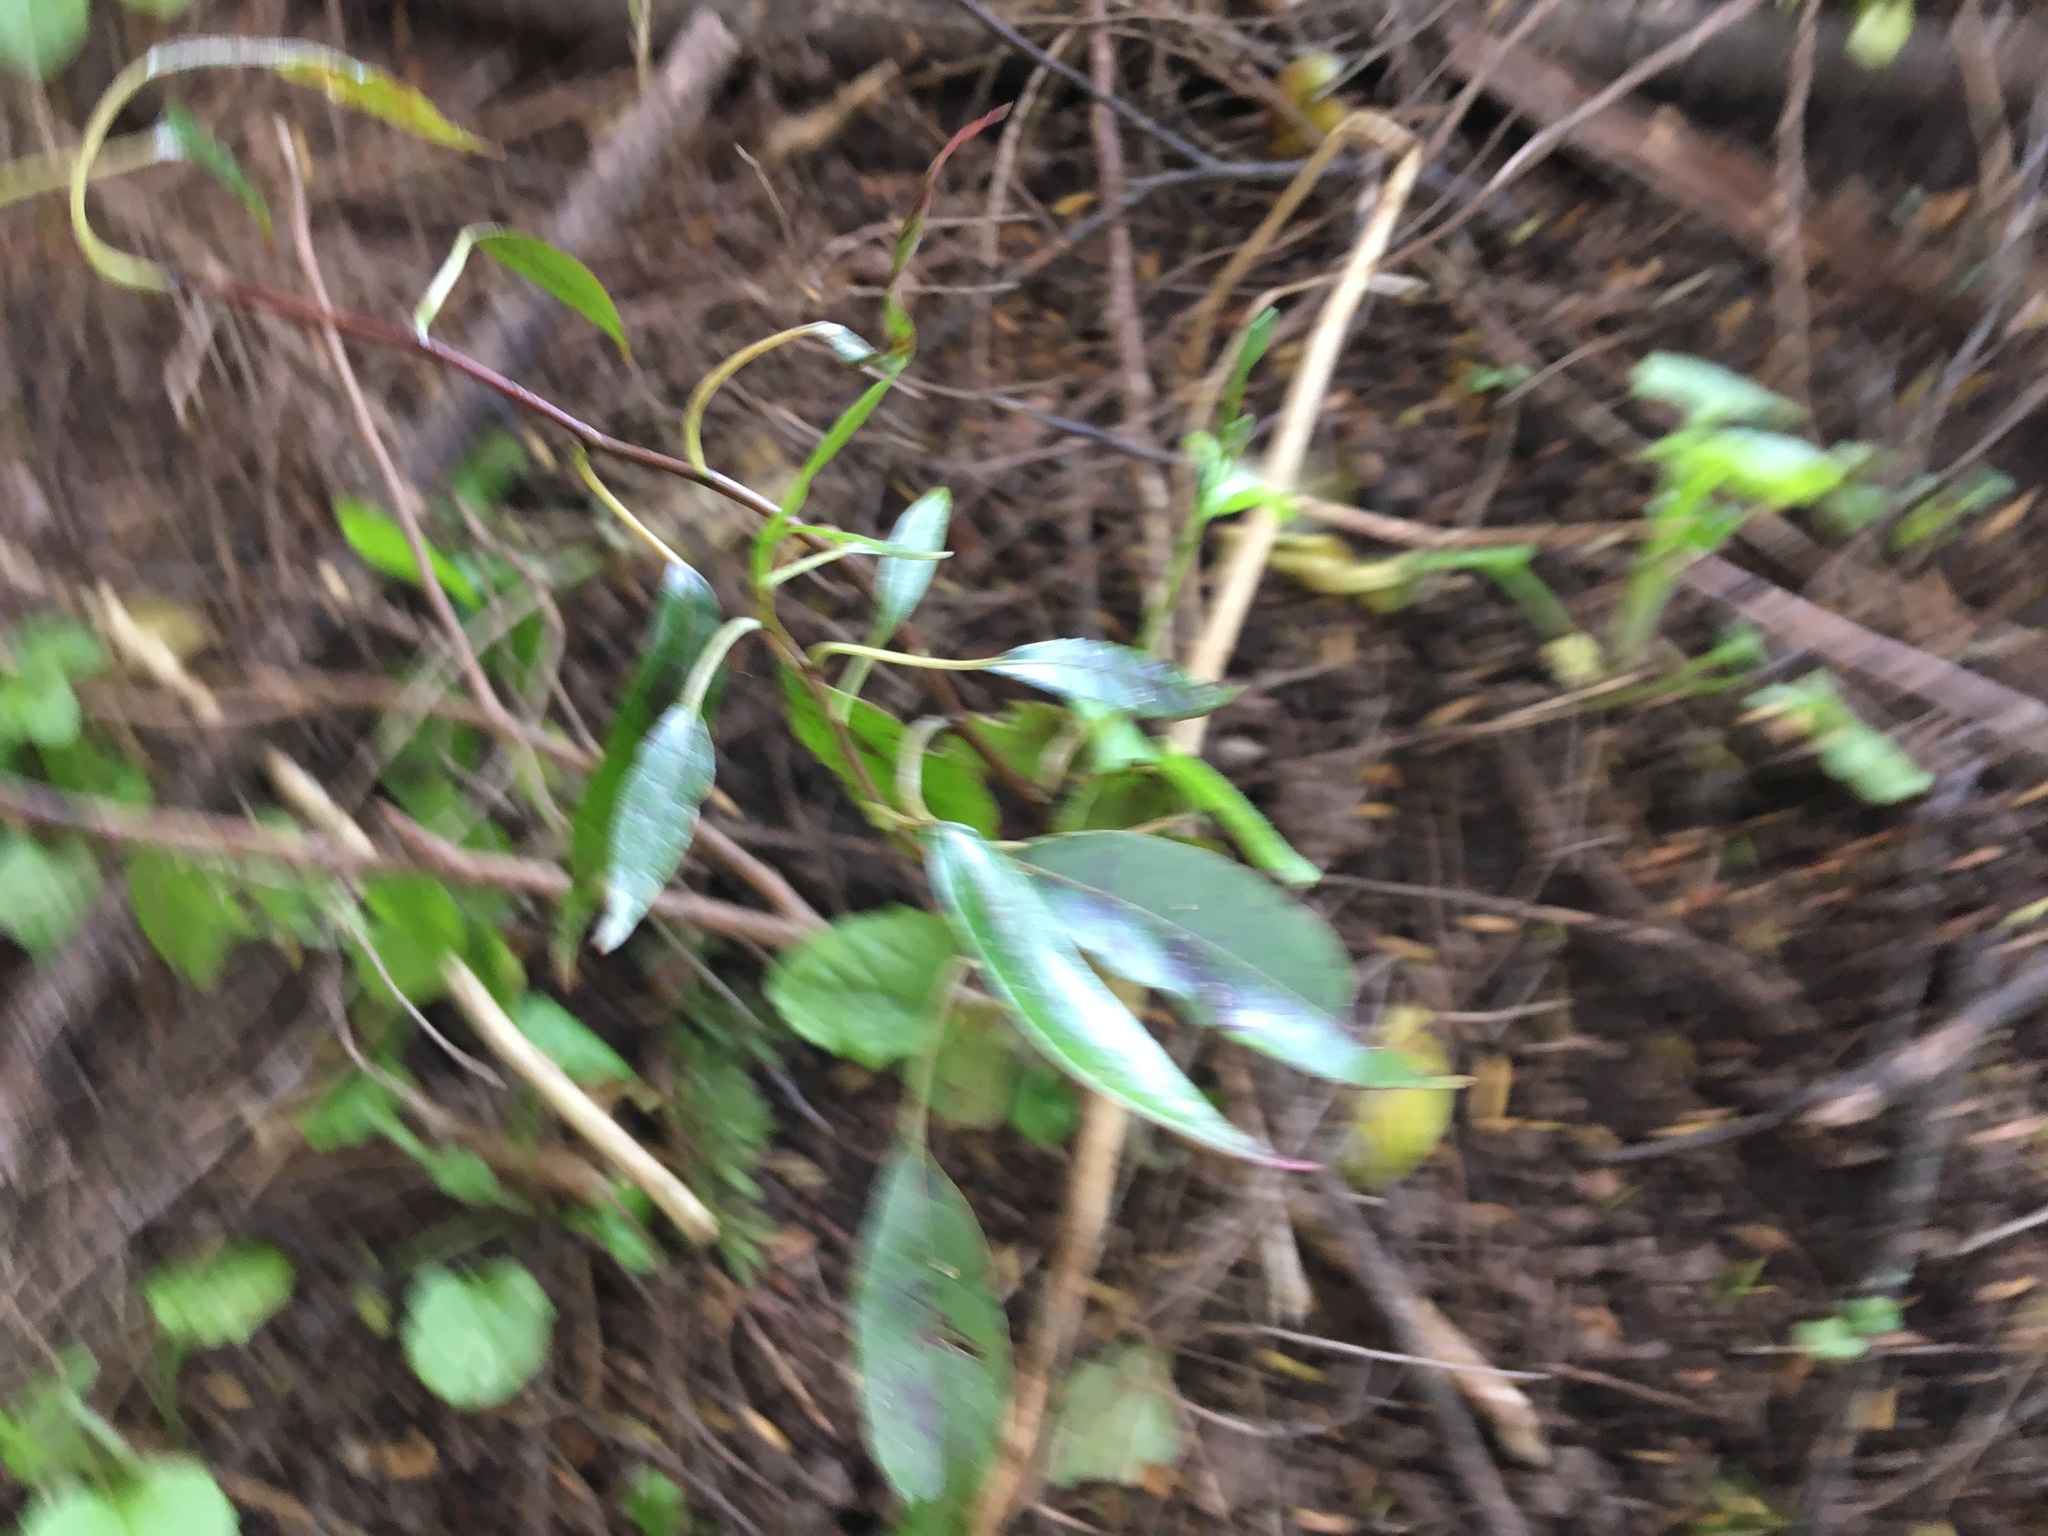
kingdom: Plantae
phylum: Tracheophyta
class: Magnoliopsida
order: Malpighiales
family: Passifloraceae
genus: Passiflora
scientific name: Passiflora tetrandra
